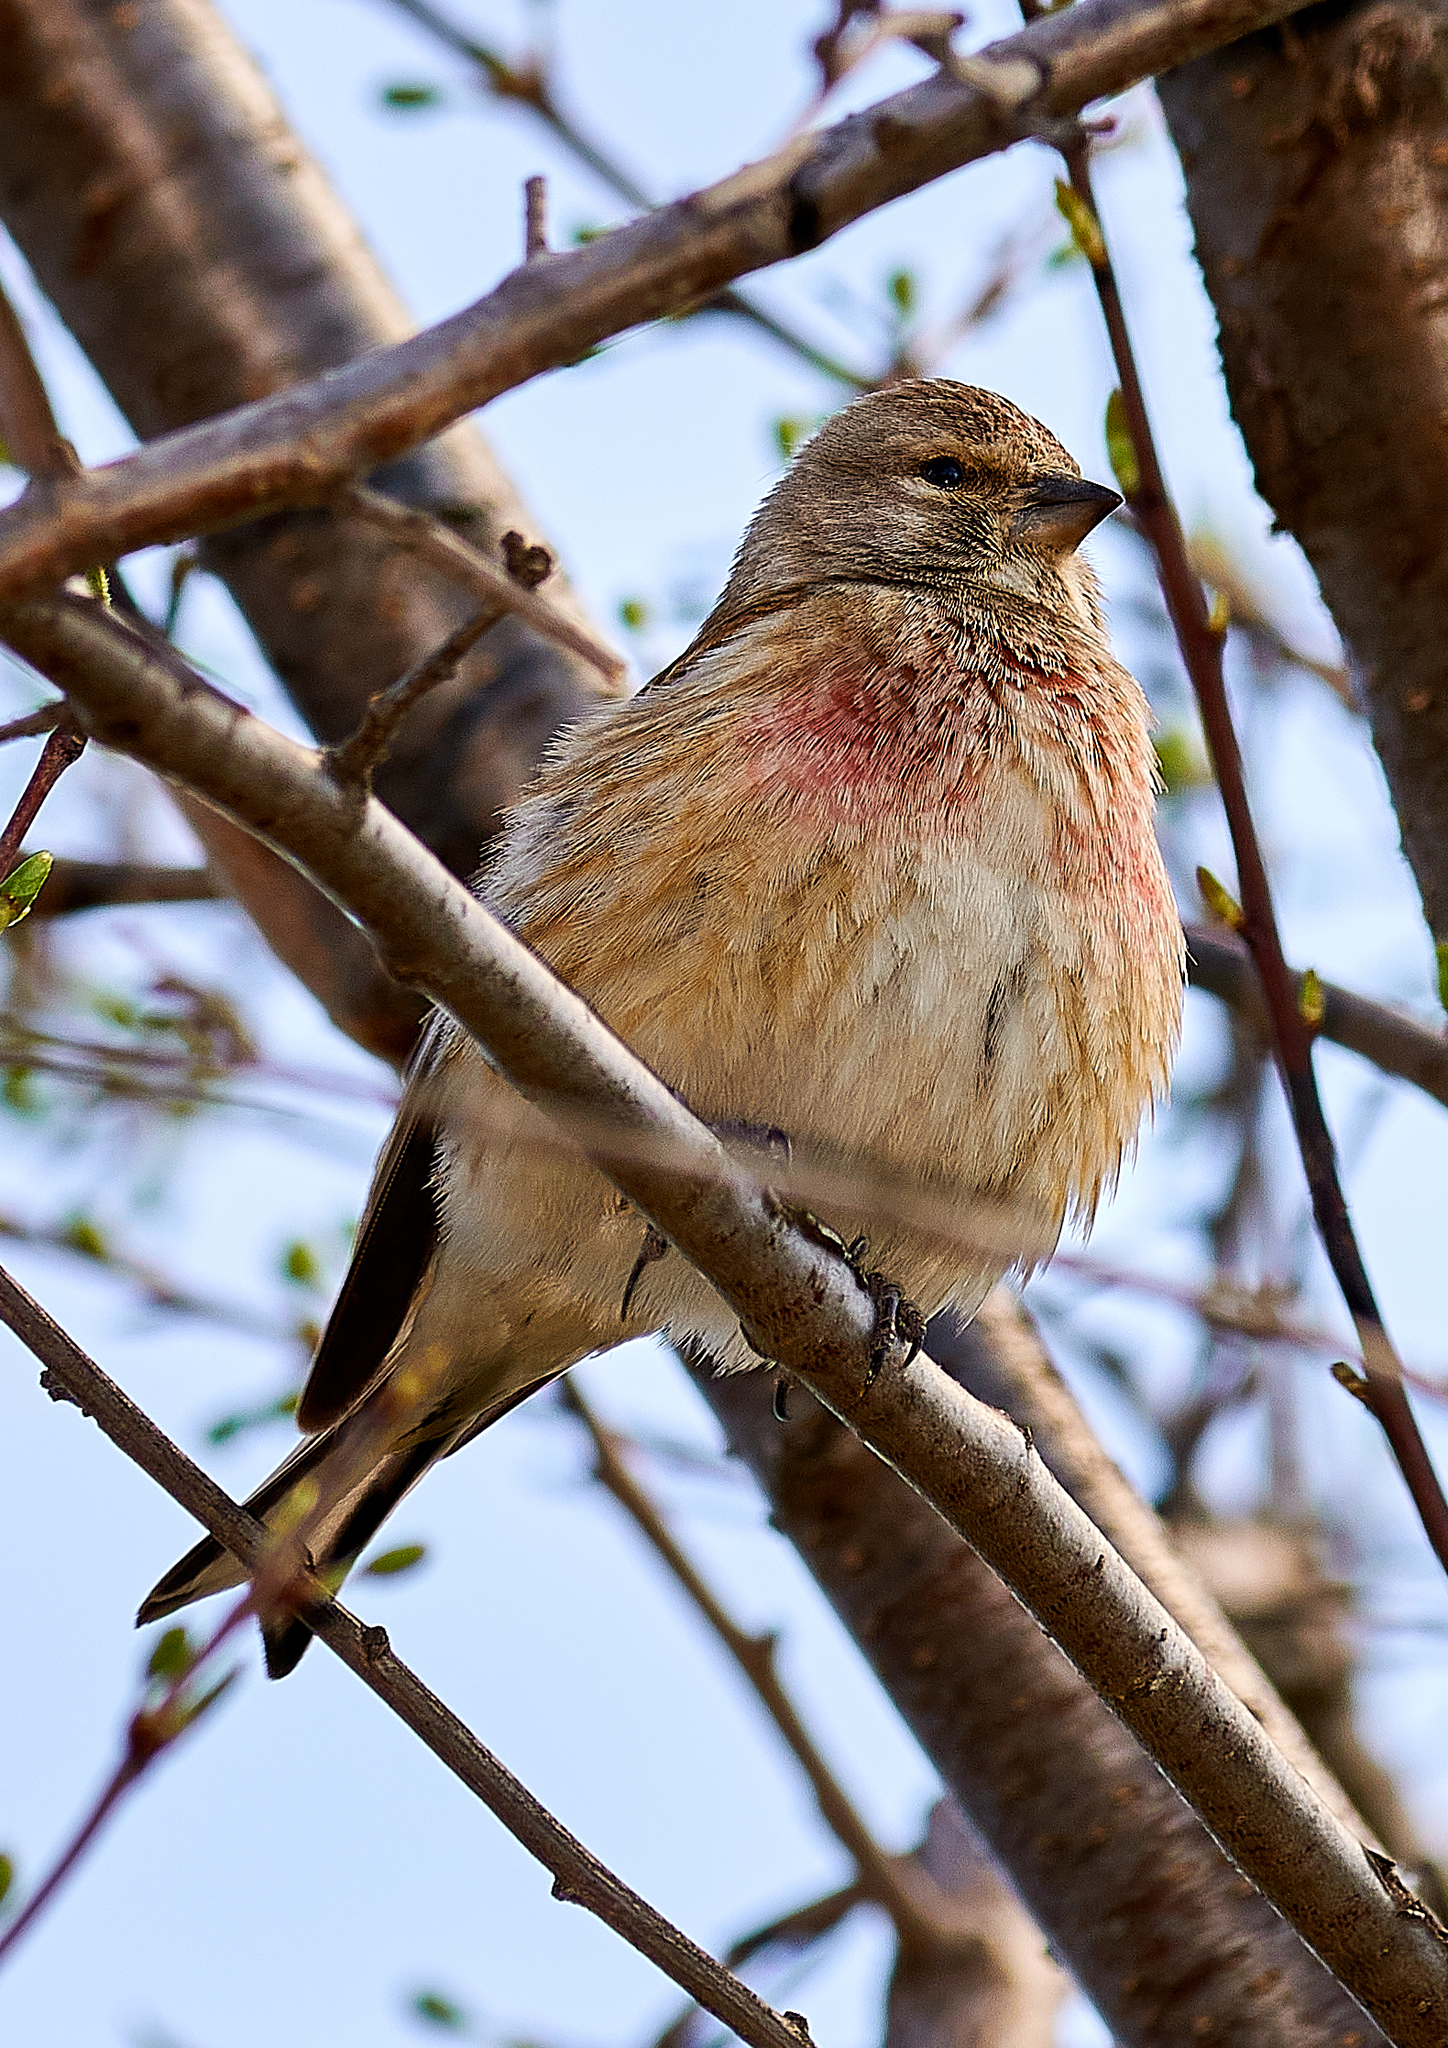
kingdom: Animalia
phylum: Chordata
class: Aves
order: Passeriformes
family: Fringillidae
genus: Linaria
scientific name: Linaria cannabina
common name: Common linnet
